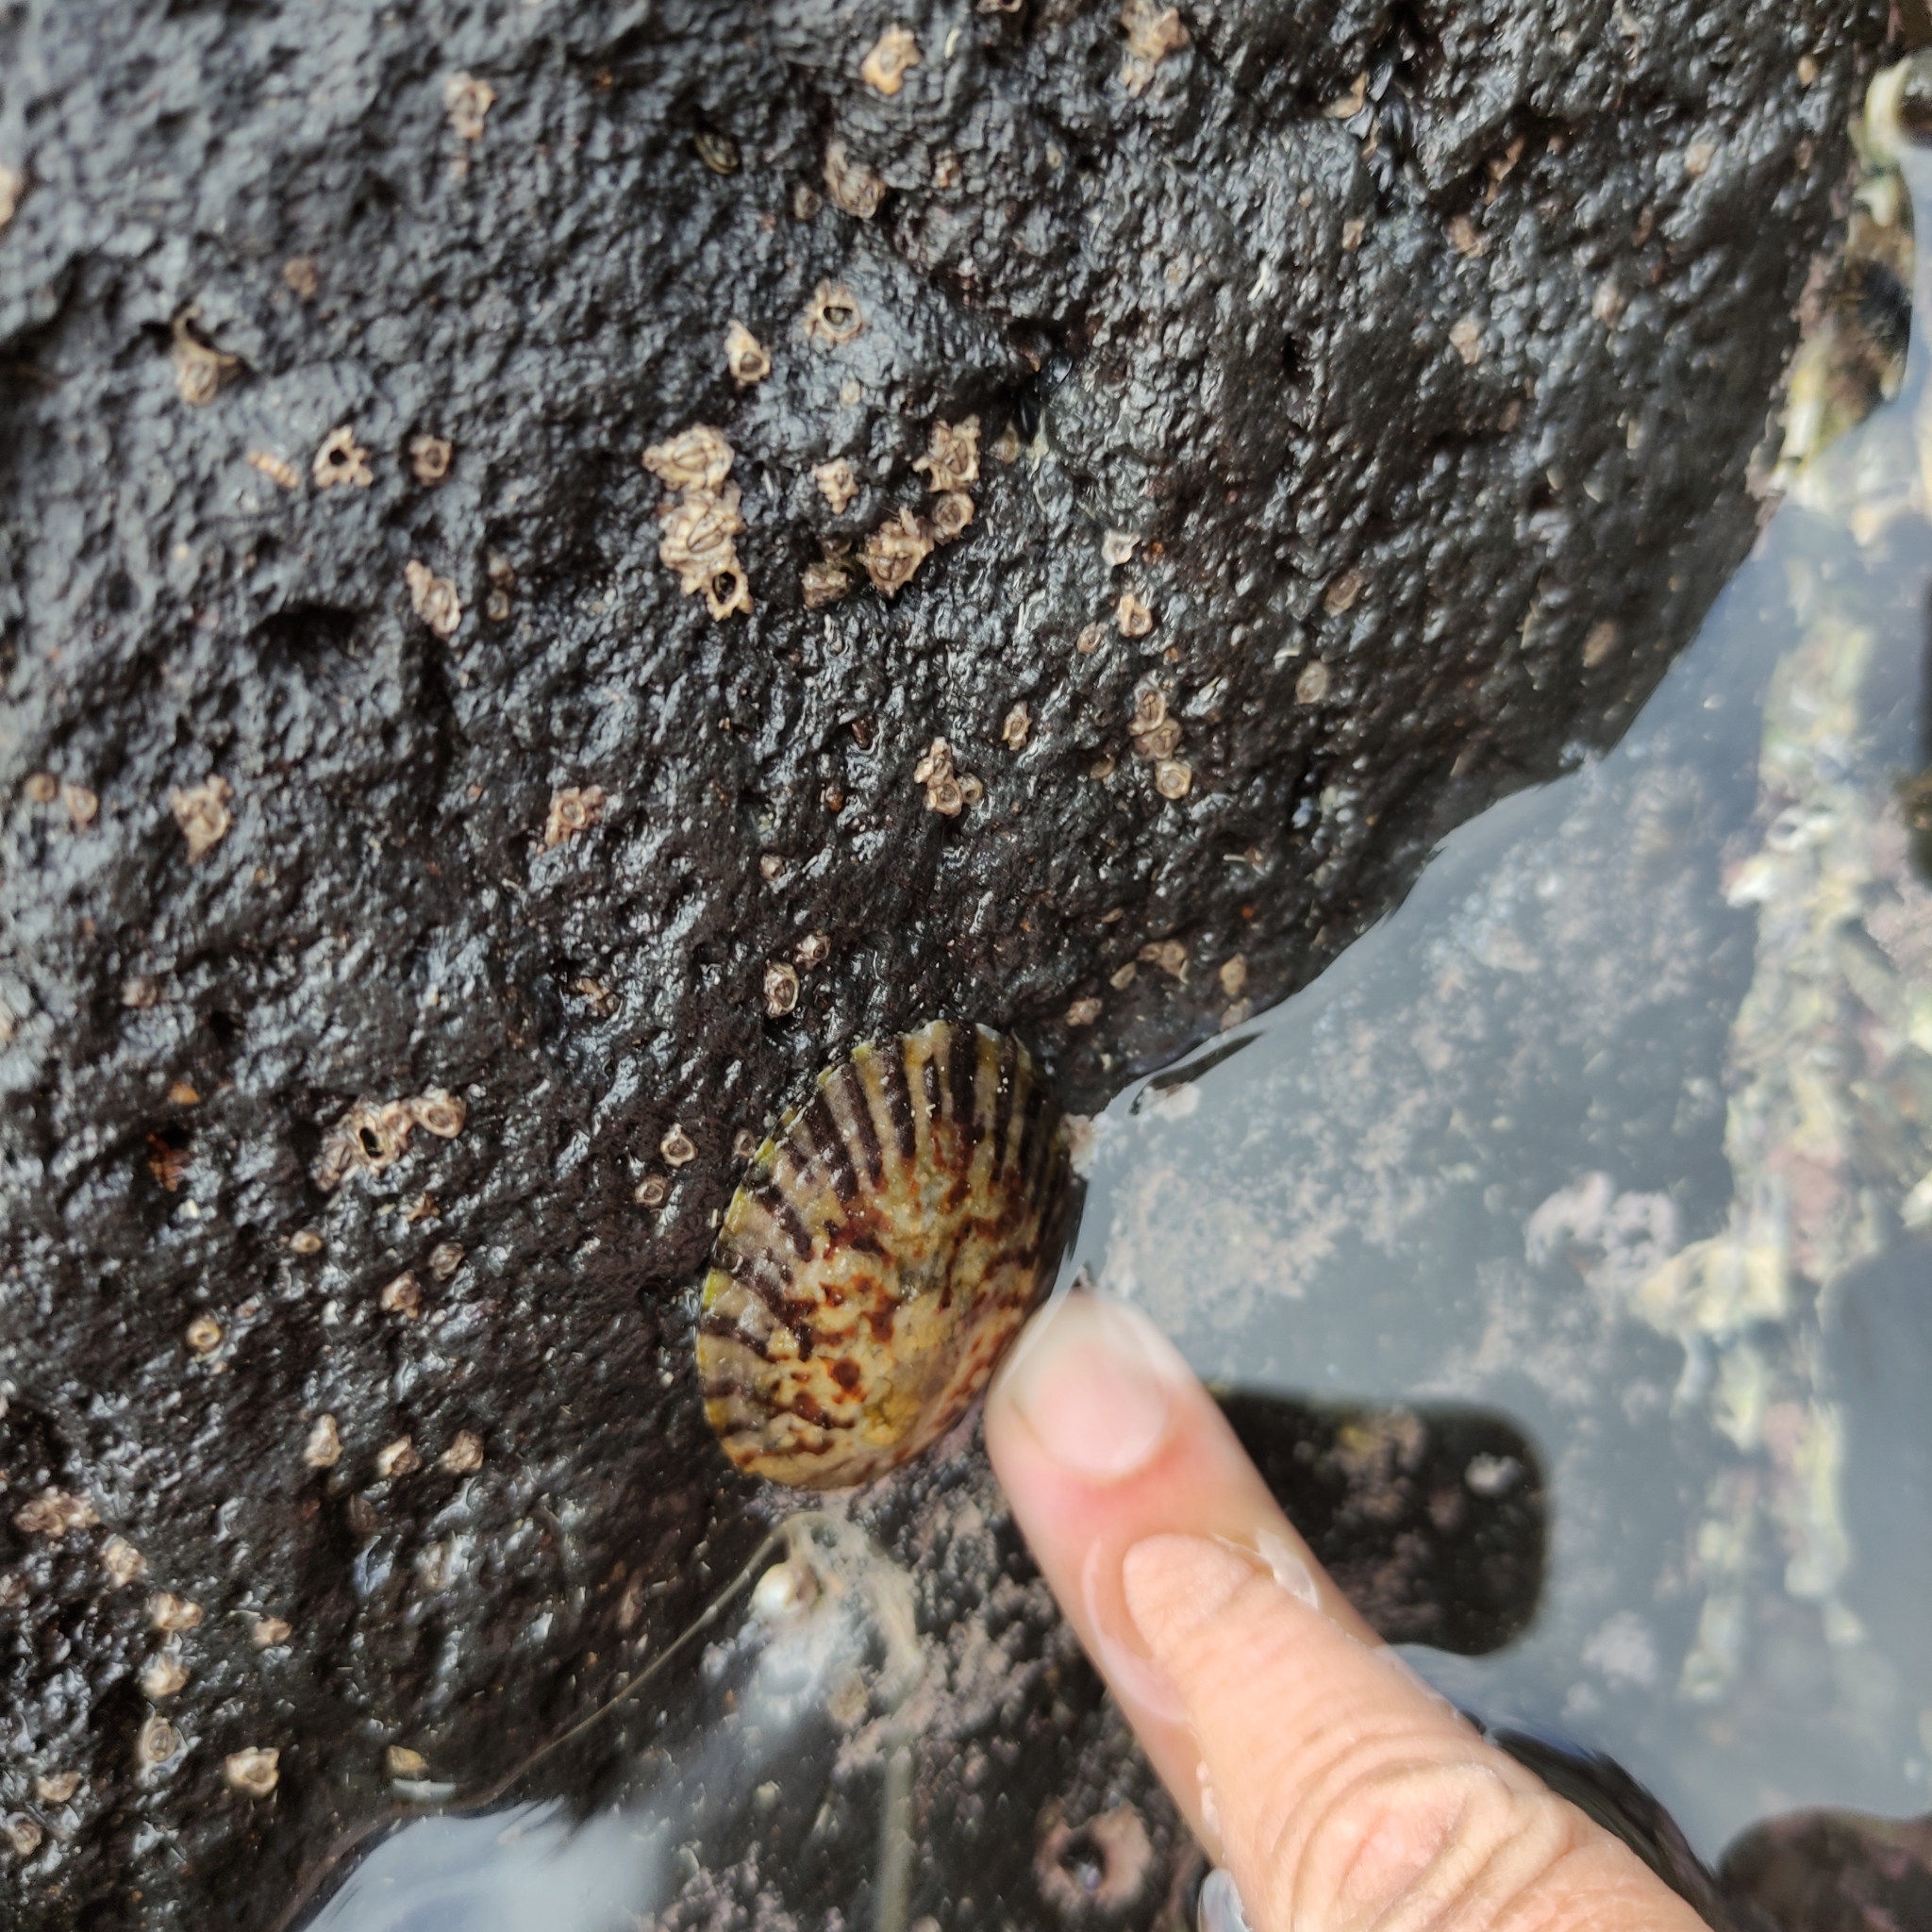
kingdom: Animalia
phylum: Mollusca
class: Gastropoda
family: Nacellidae
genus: Cellana
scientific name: Cellana radians
